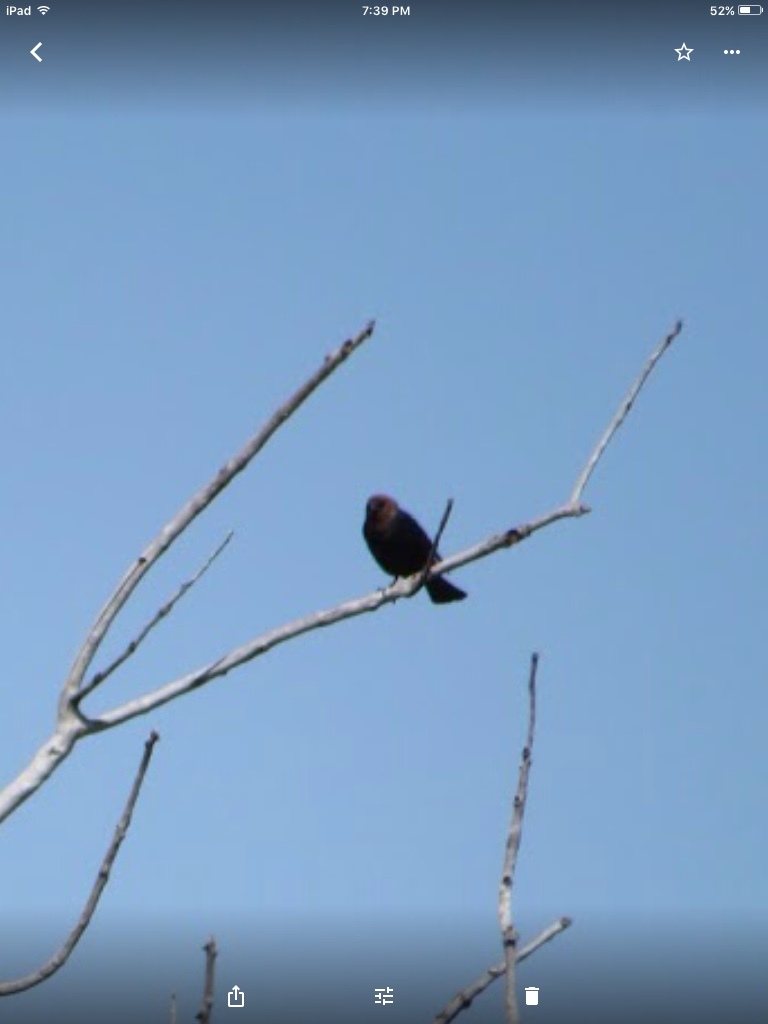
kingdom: Animalia
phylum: Chordata
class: Aves
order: Passeriformes
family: Icteridae
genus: Molothrus
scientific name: Molothrus ater
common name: Brown-headed cowbird
